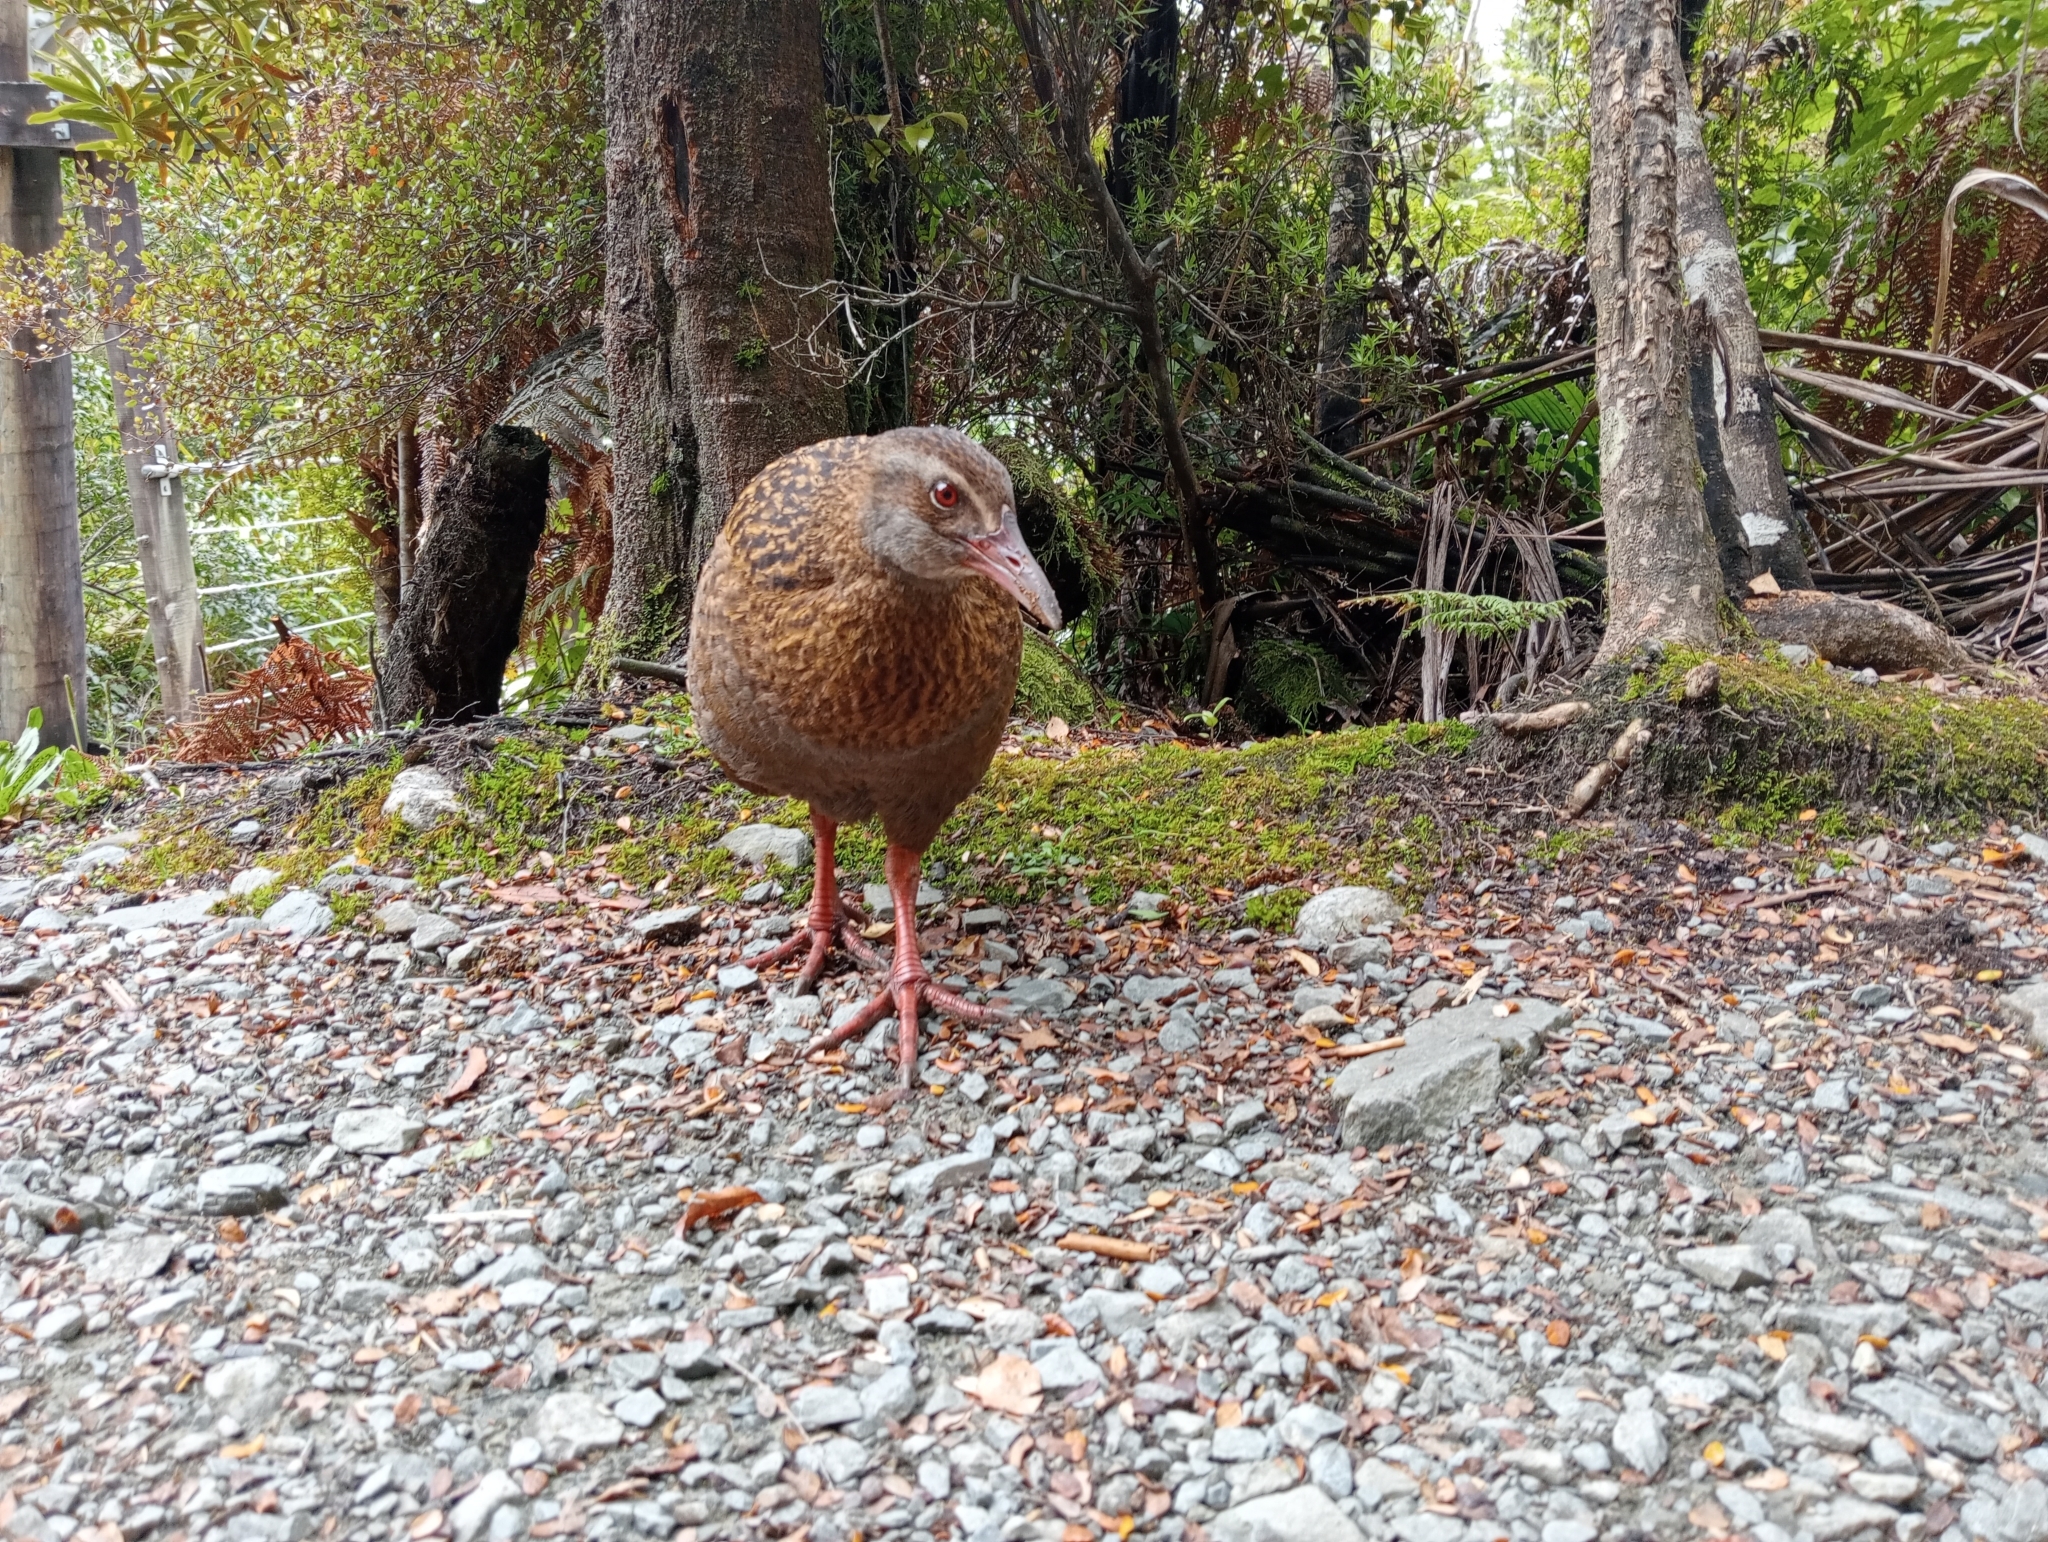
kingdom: Animalia
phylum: Chordata
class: Aves
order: Gruiformes
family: Rallidae
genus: Gallirallus
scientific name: Gallirallus australis
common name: Weka
